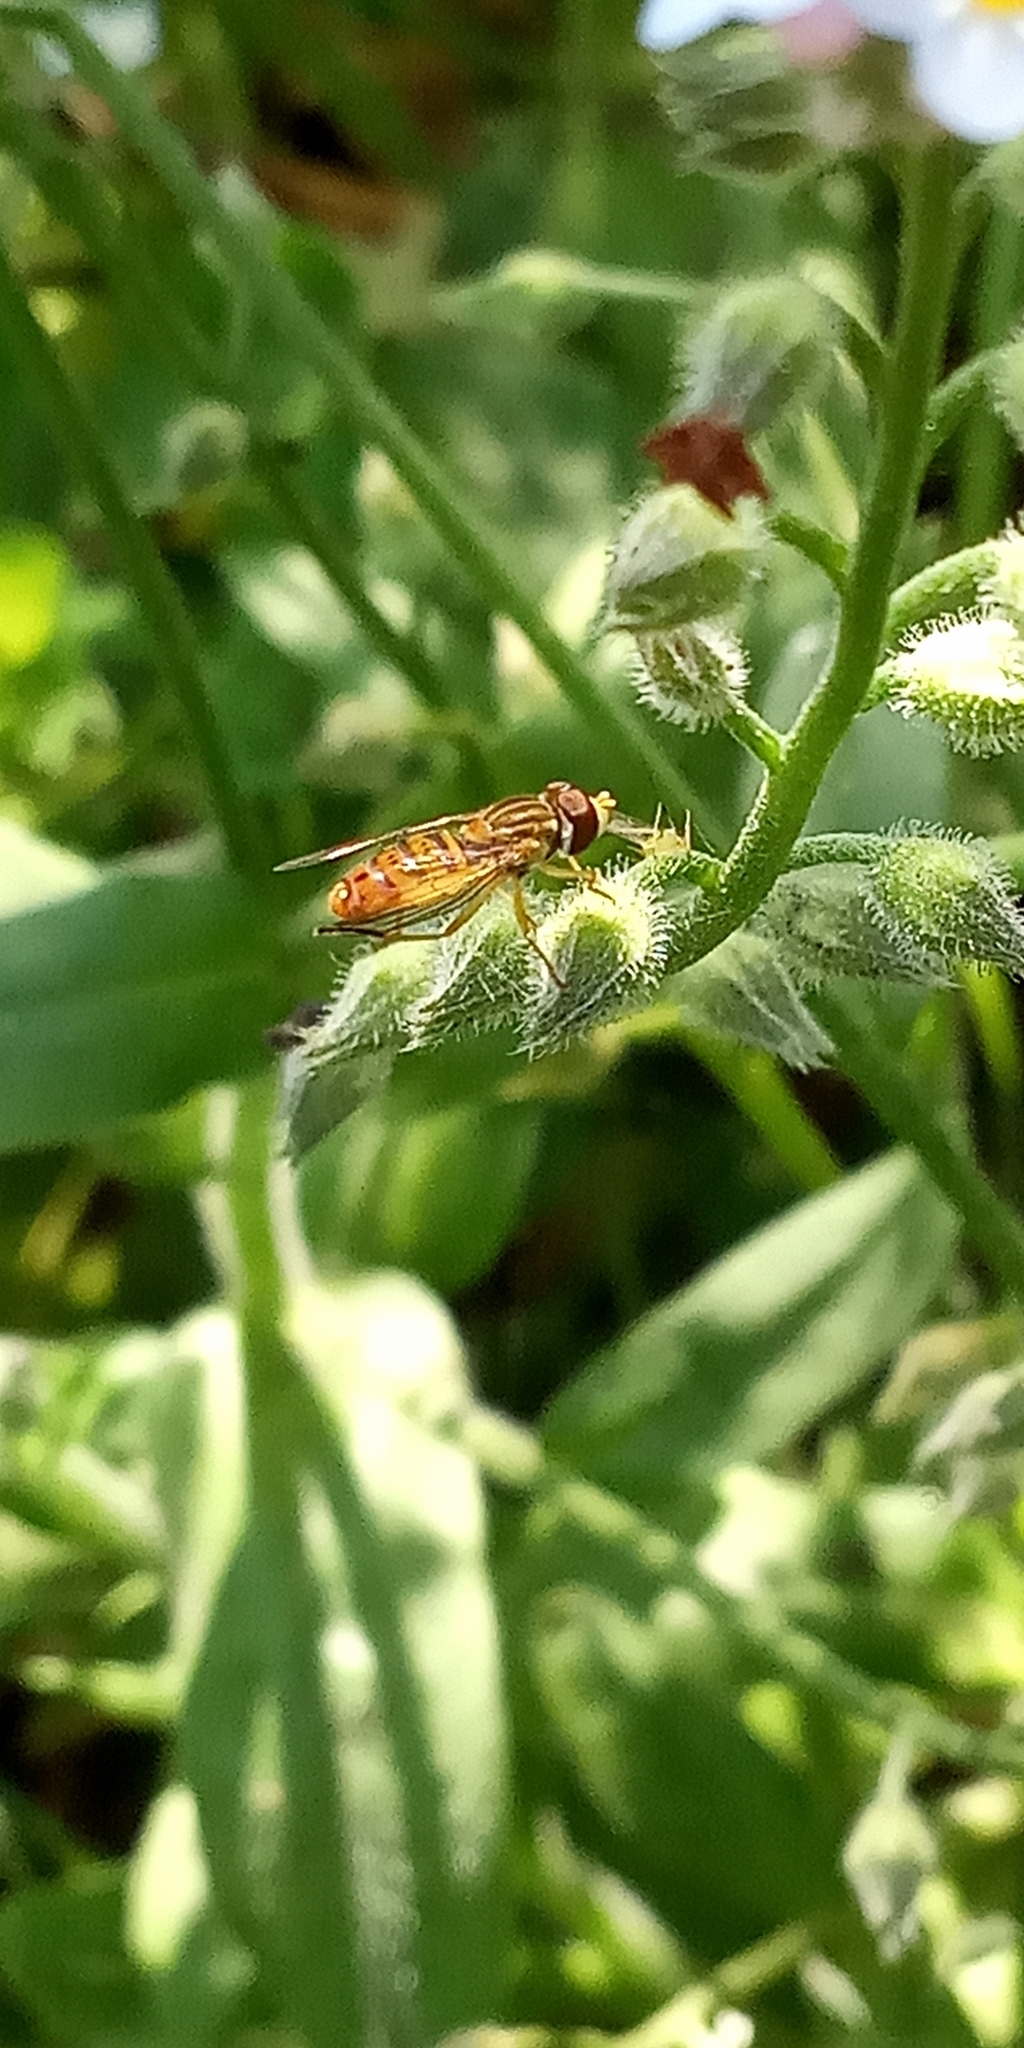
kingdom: Animalia
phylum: Arthropoda
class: Insecta
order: Diptera
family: Syrphidae
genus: Toxomerus
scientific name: Toxomerus
